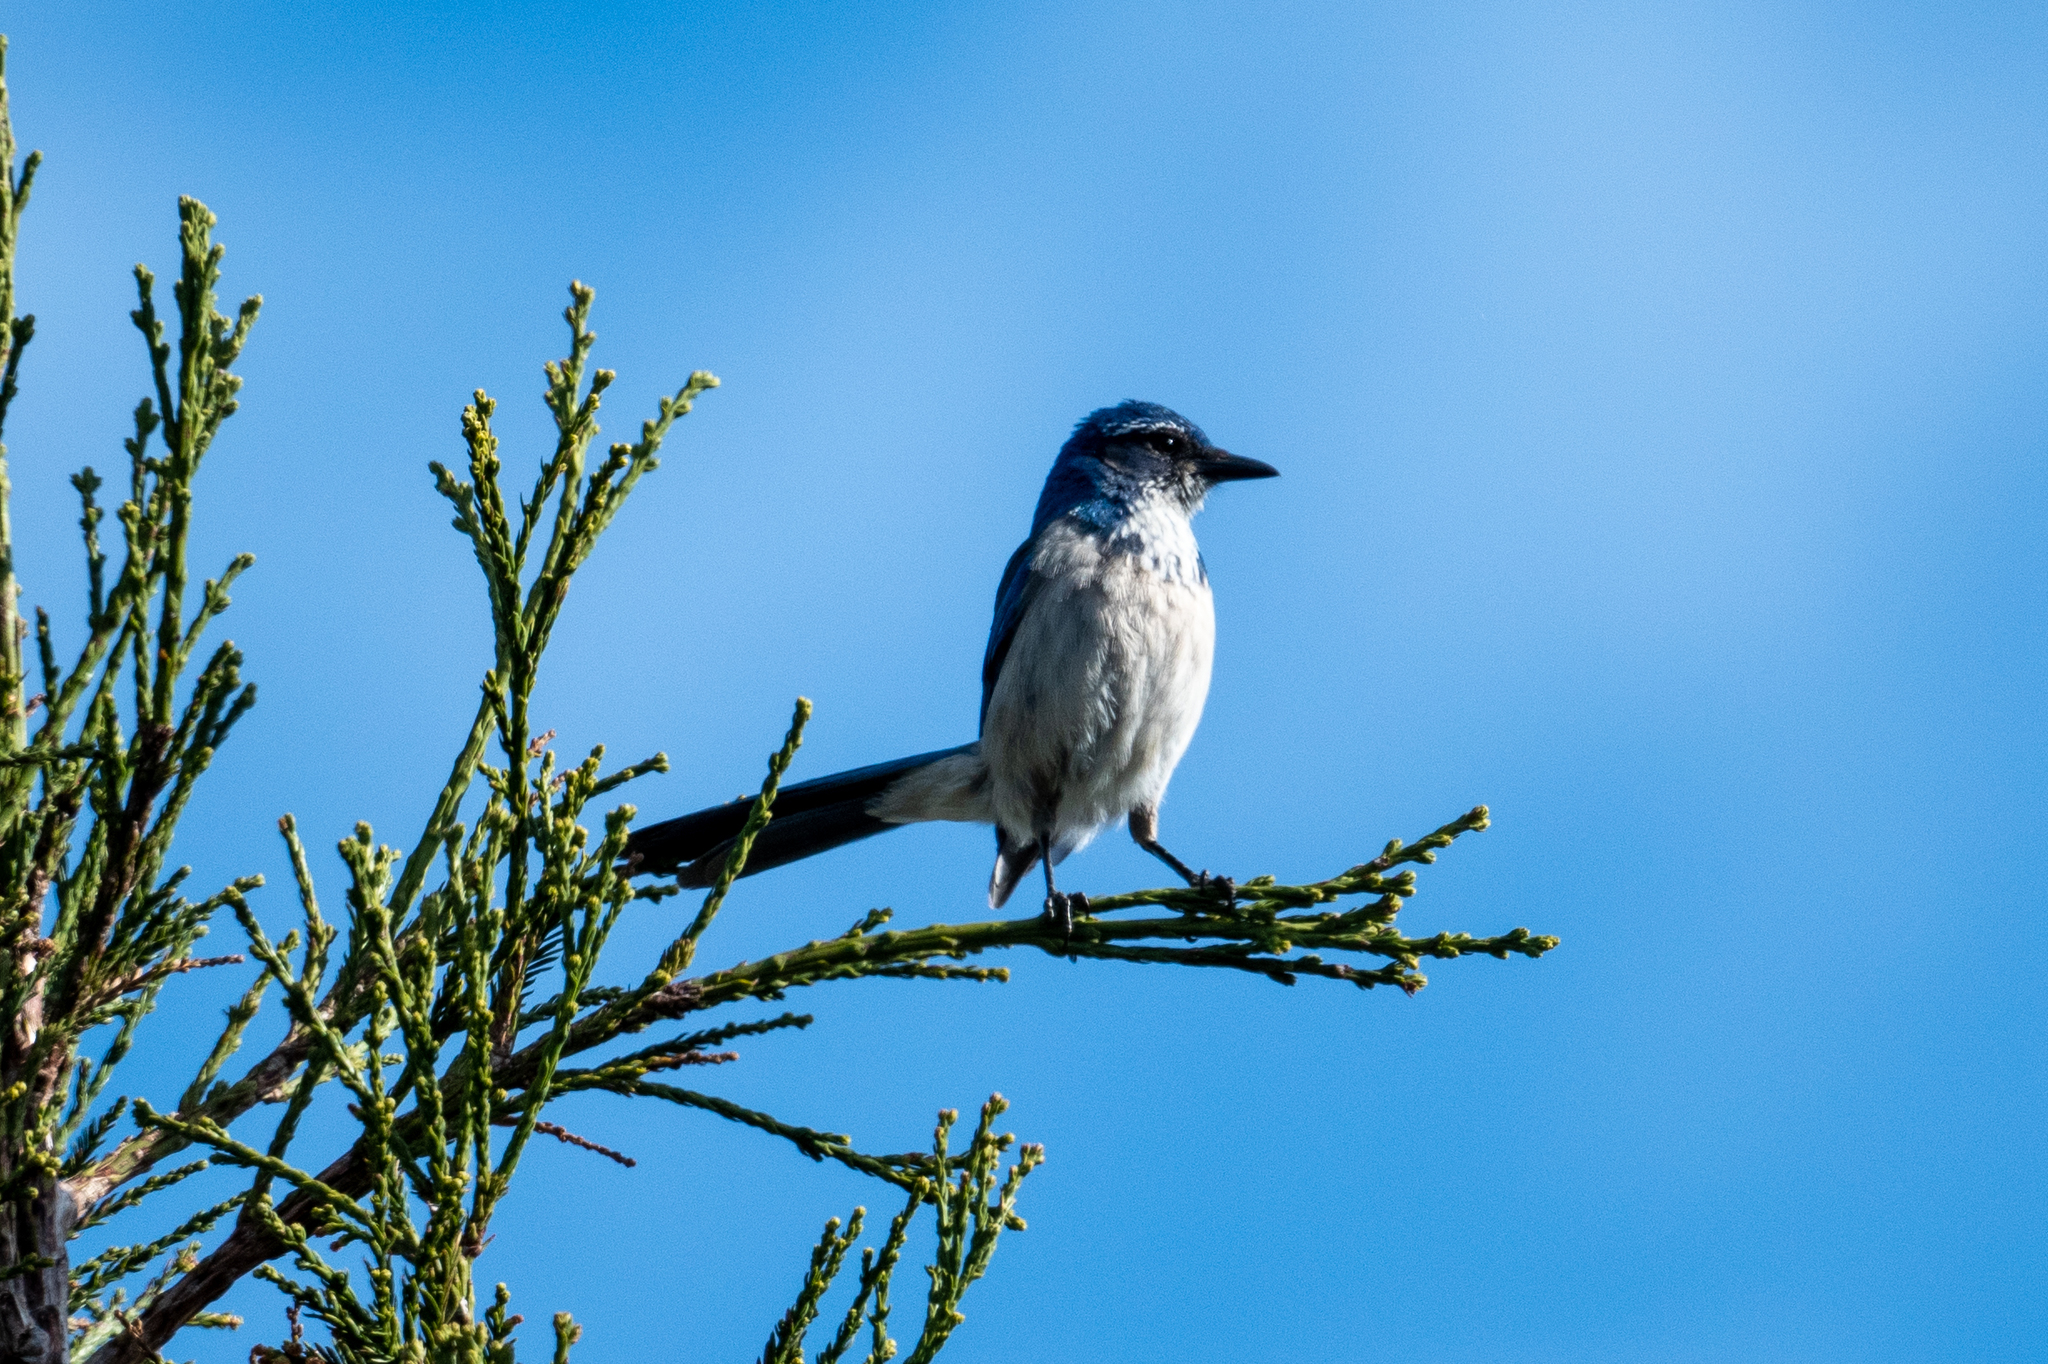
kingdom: Animalia
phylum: Chordata
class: Aves
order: Passeriformes
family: Corvidae
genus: Aphelocoma
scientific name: Aphelocoma californica
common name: California scrub-jay
